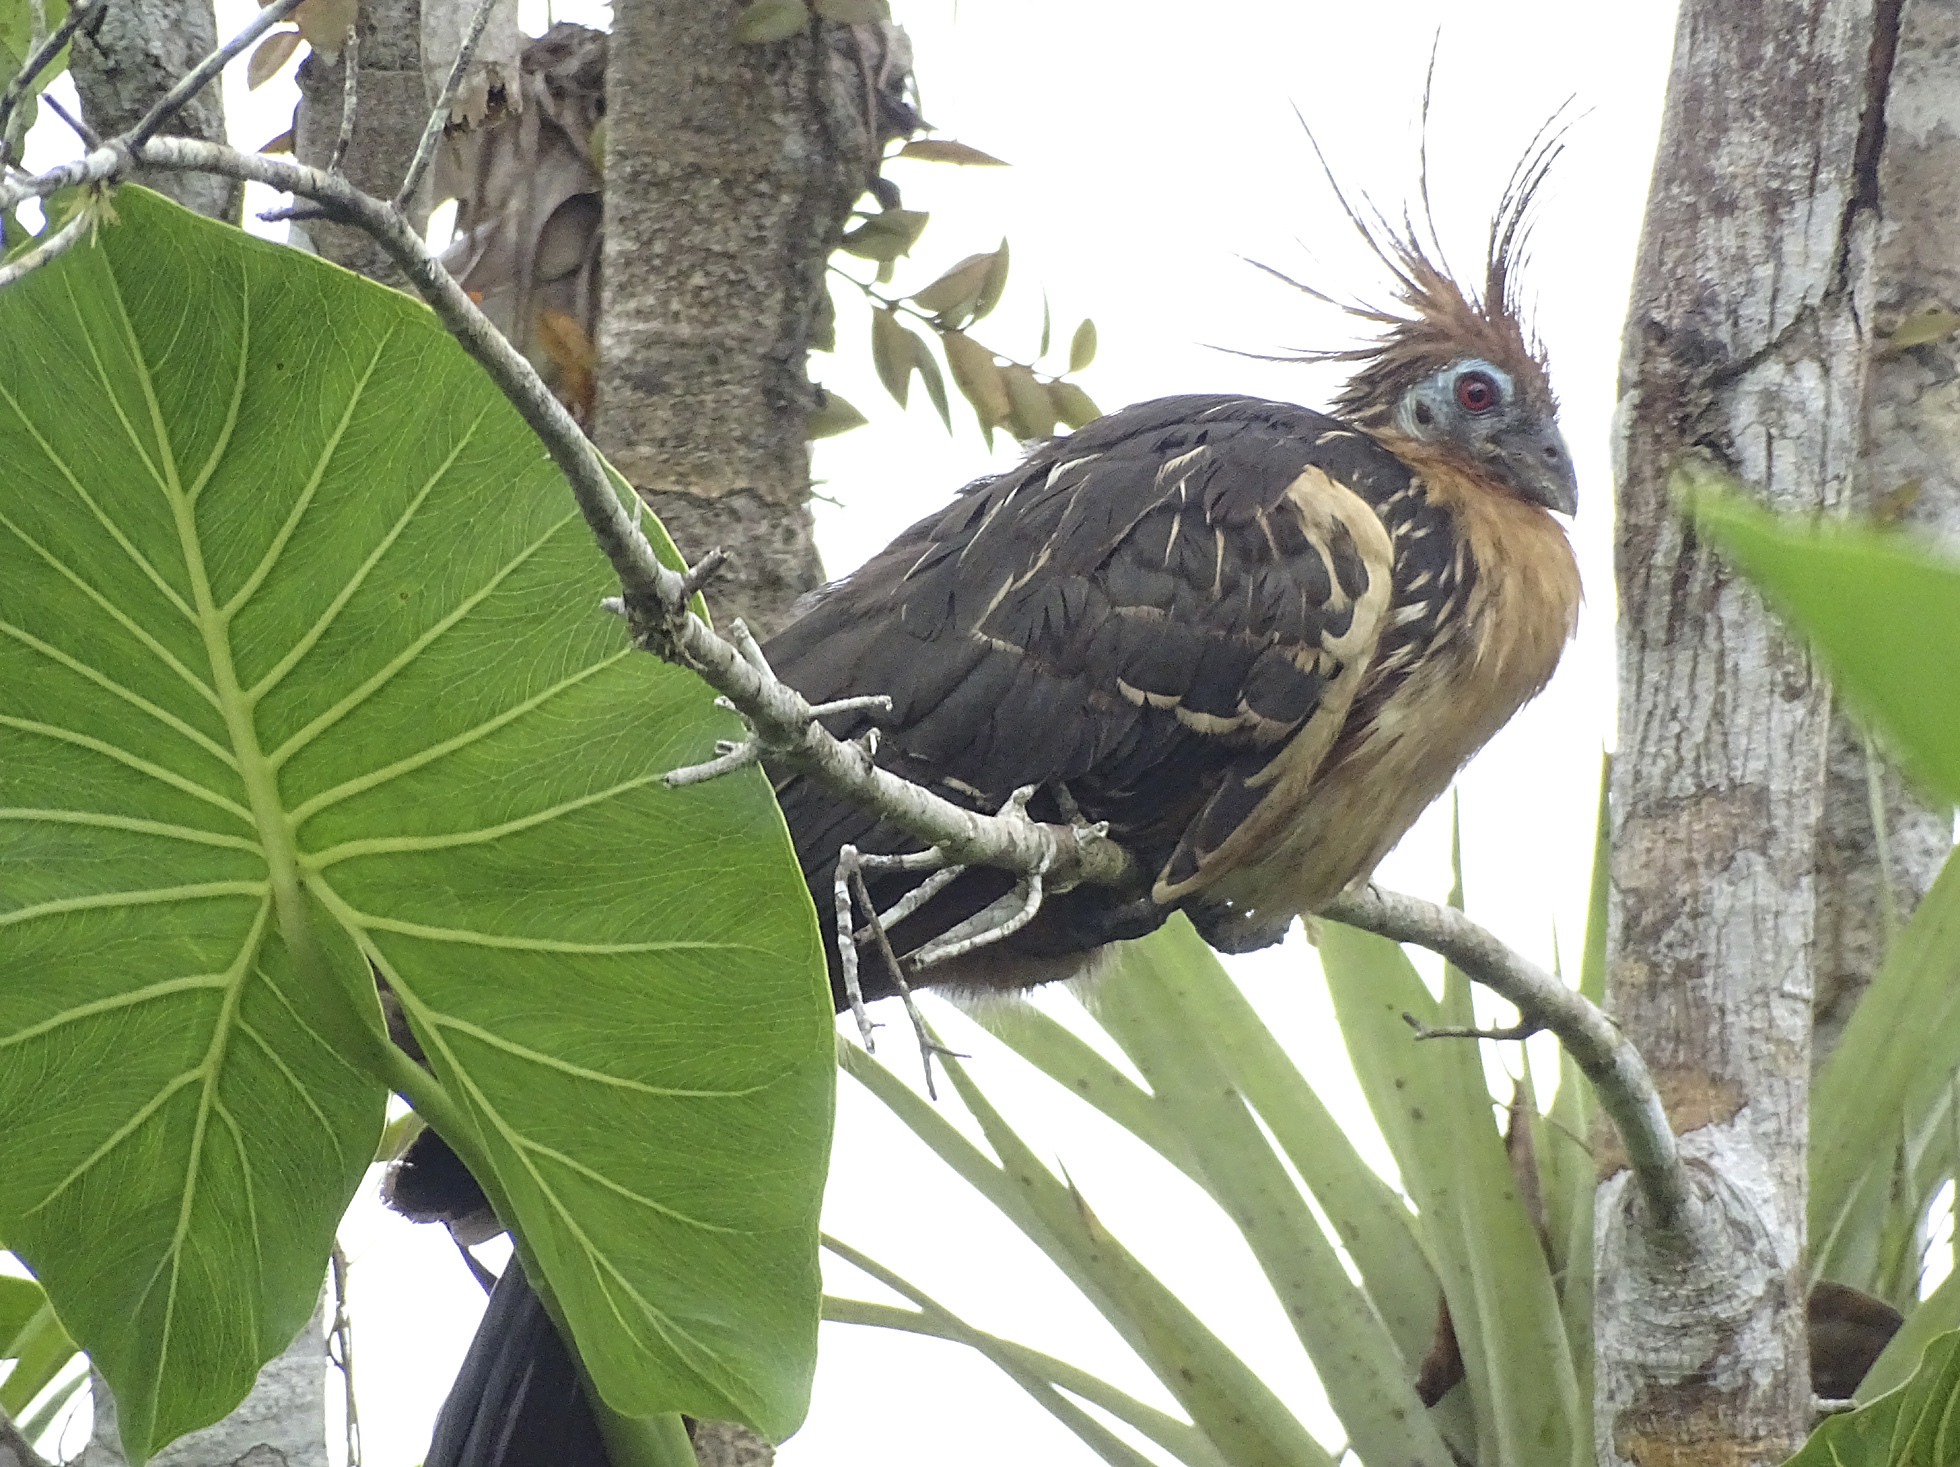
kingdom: Animalia
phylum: Chordata
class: Aves
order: Opisthocomiformes
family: Opisthocomidae
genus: Opisthocomus
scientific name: Opisthocomus hoazin
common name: Hoatzin
